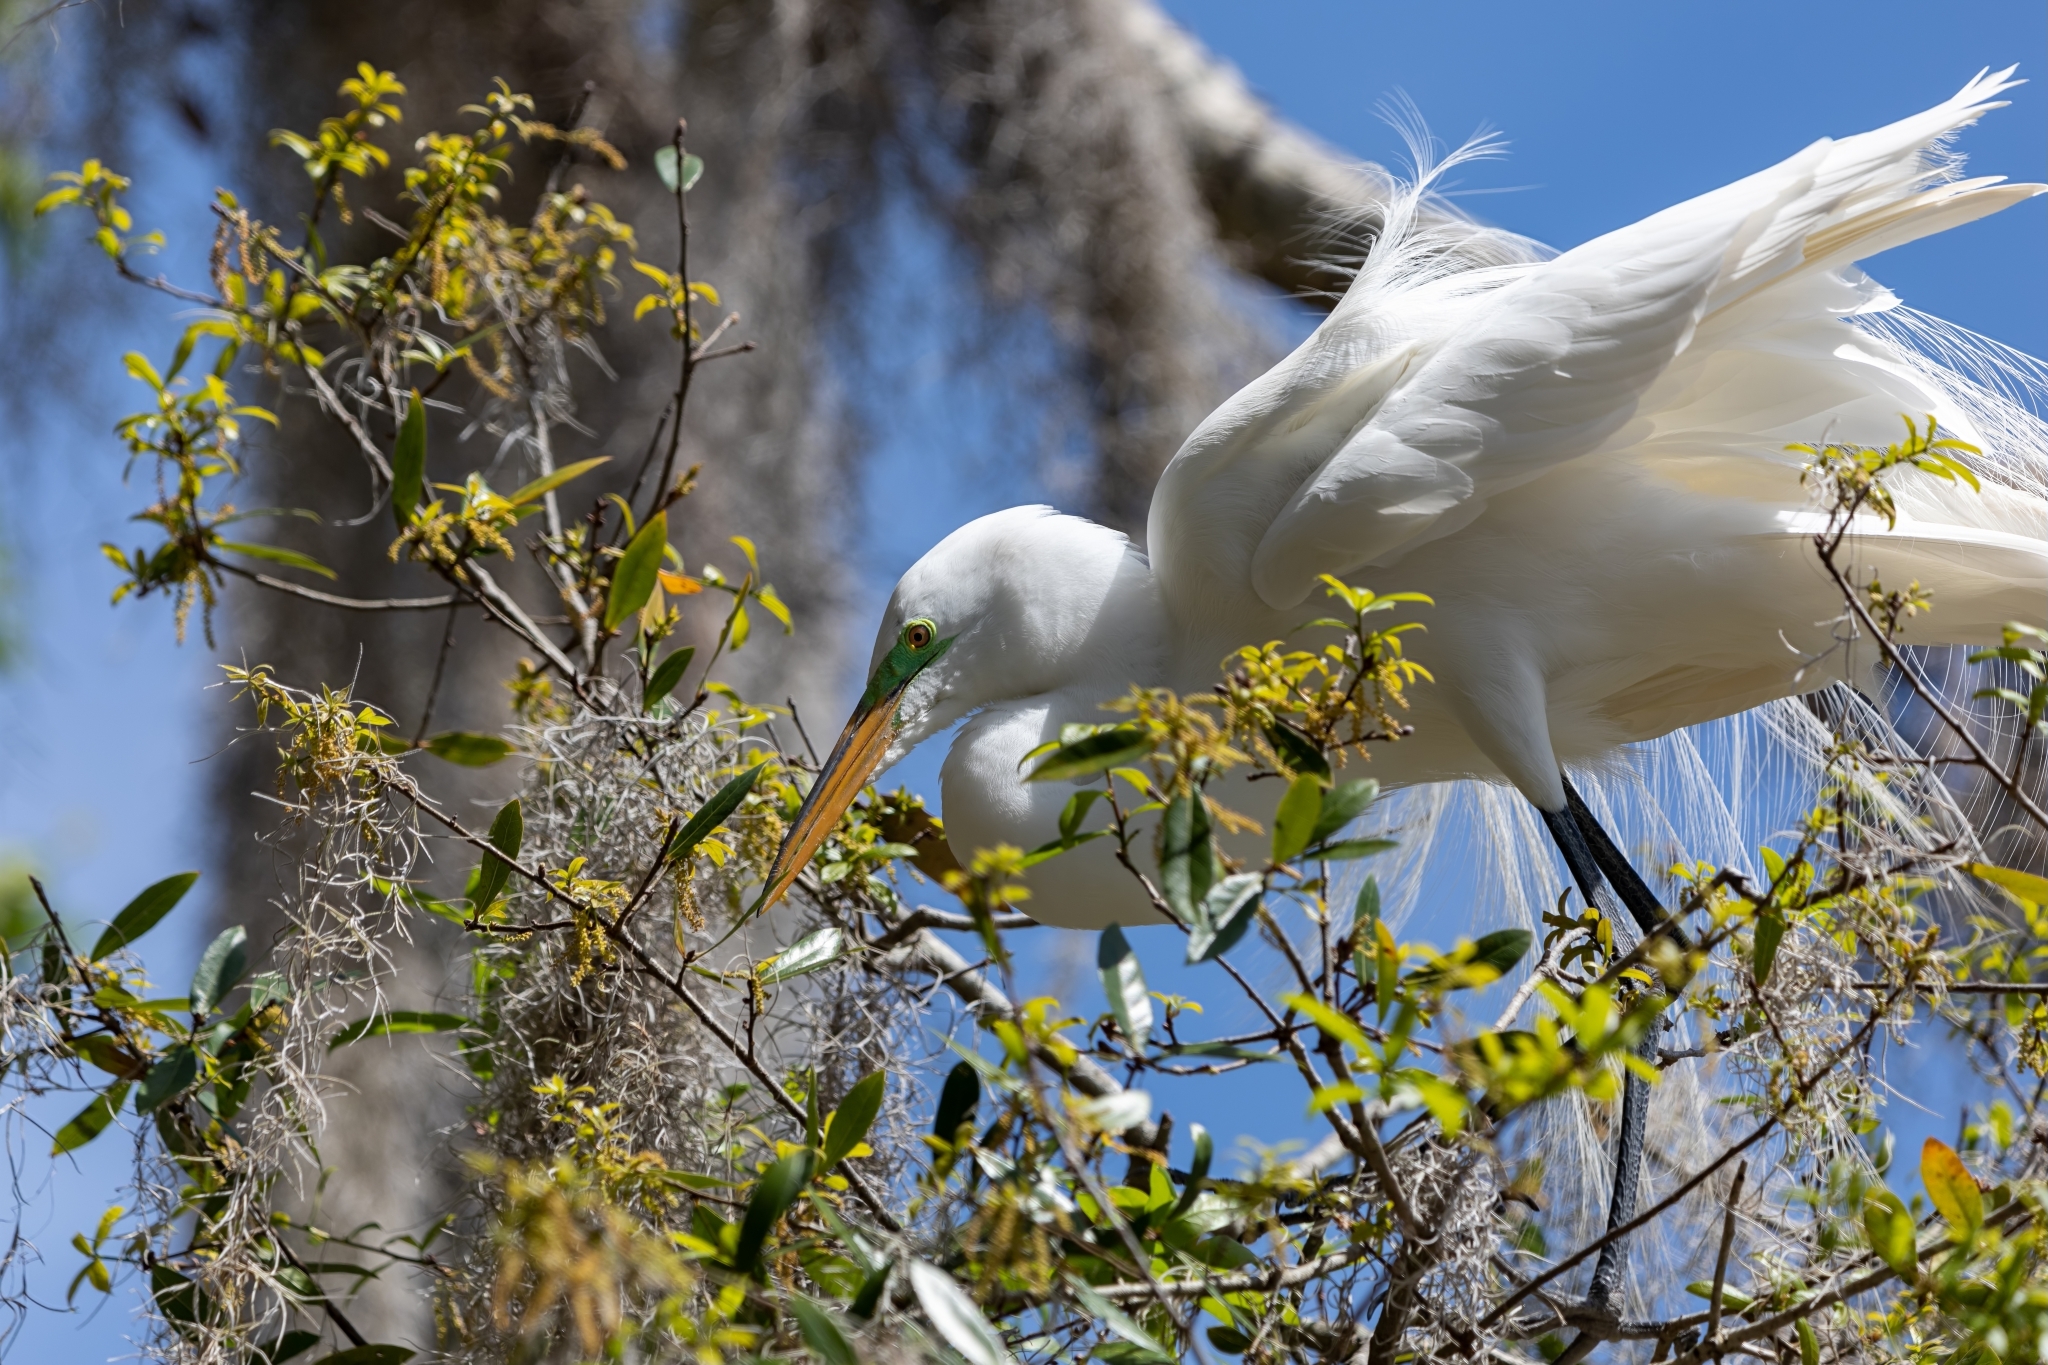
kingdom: Animalia
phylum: Chordata
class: Aves
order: Pelecaniformes
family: Ardeidae
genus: Ardea
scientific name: Ardea alba
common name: Great egret
